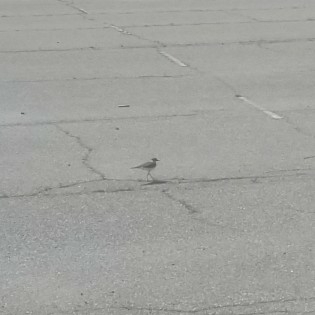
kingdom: Animalia
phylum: Chordata
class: Aves
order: Charadriiformes
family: Charadriidae
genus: Charadrius
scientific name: Charadrius vociferus
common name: Killdeer
